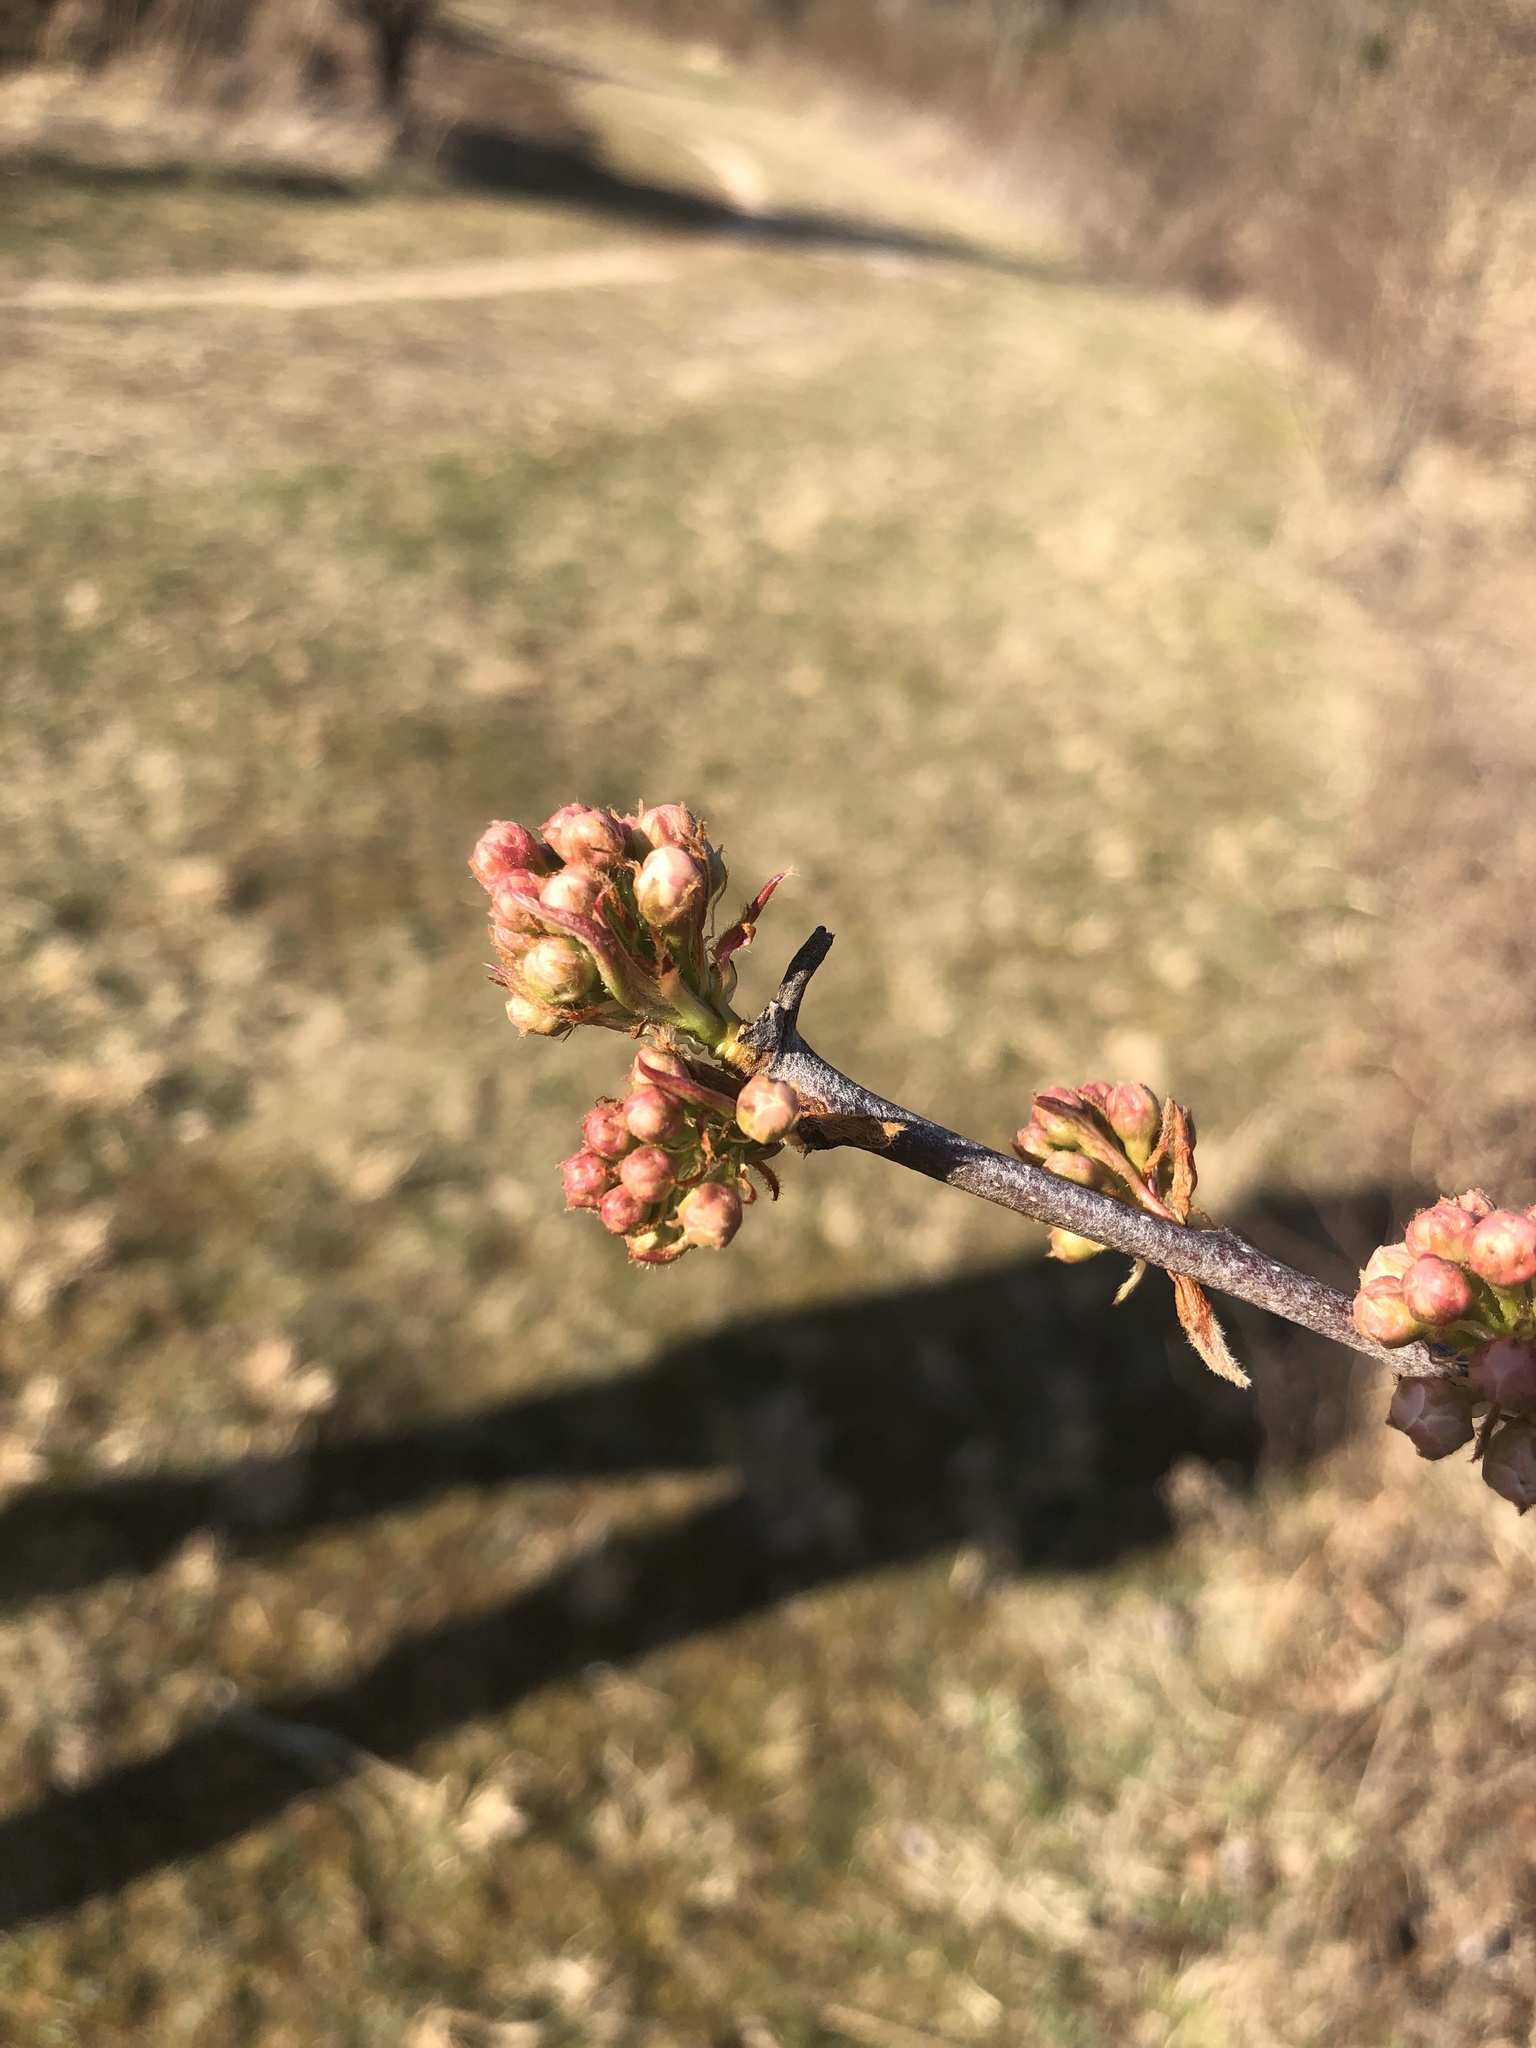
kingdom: Plantae
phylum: Tracheophyta
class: Magnoliopsida
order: Rosales
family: Rosaceae
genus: Pyrus
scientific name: Pyrus calleryana
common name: Callery pear
